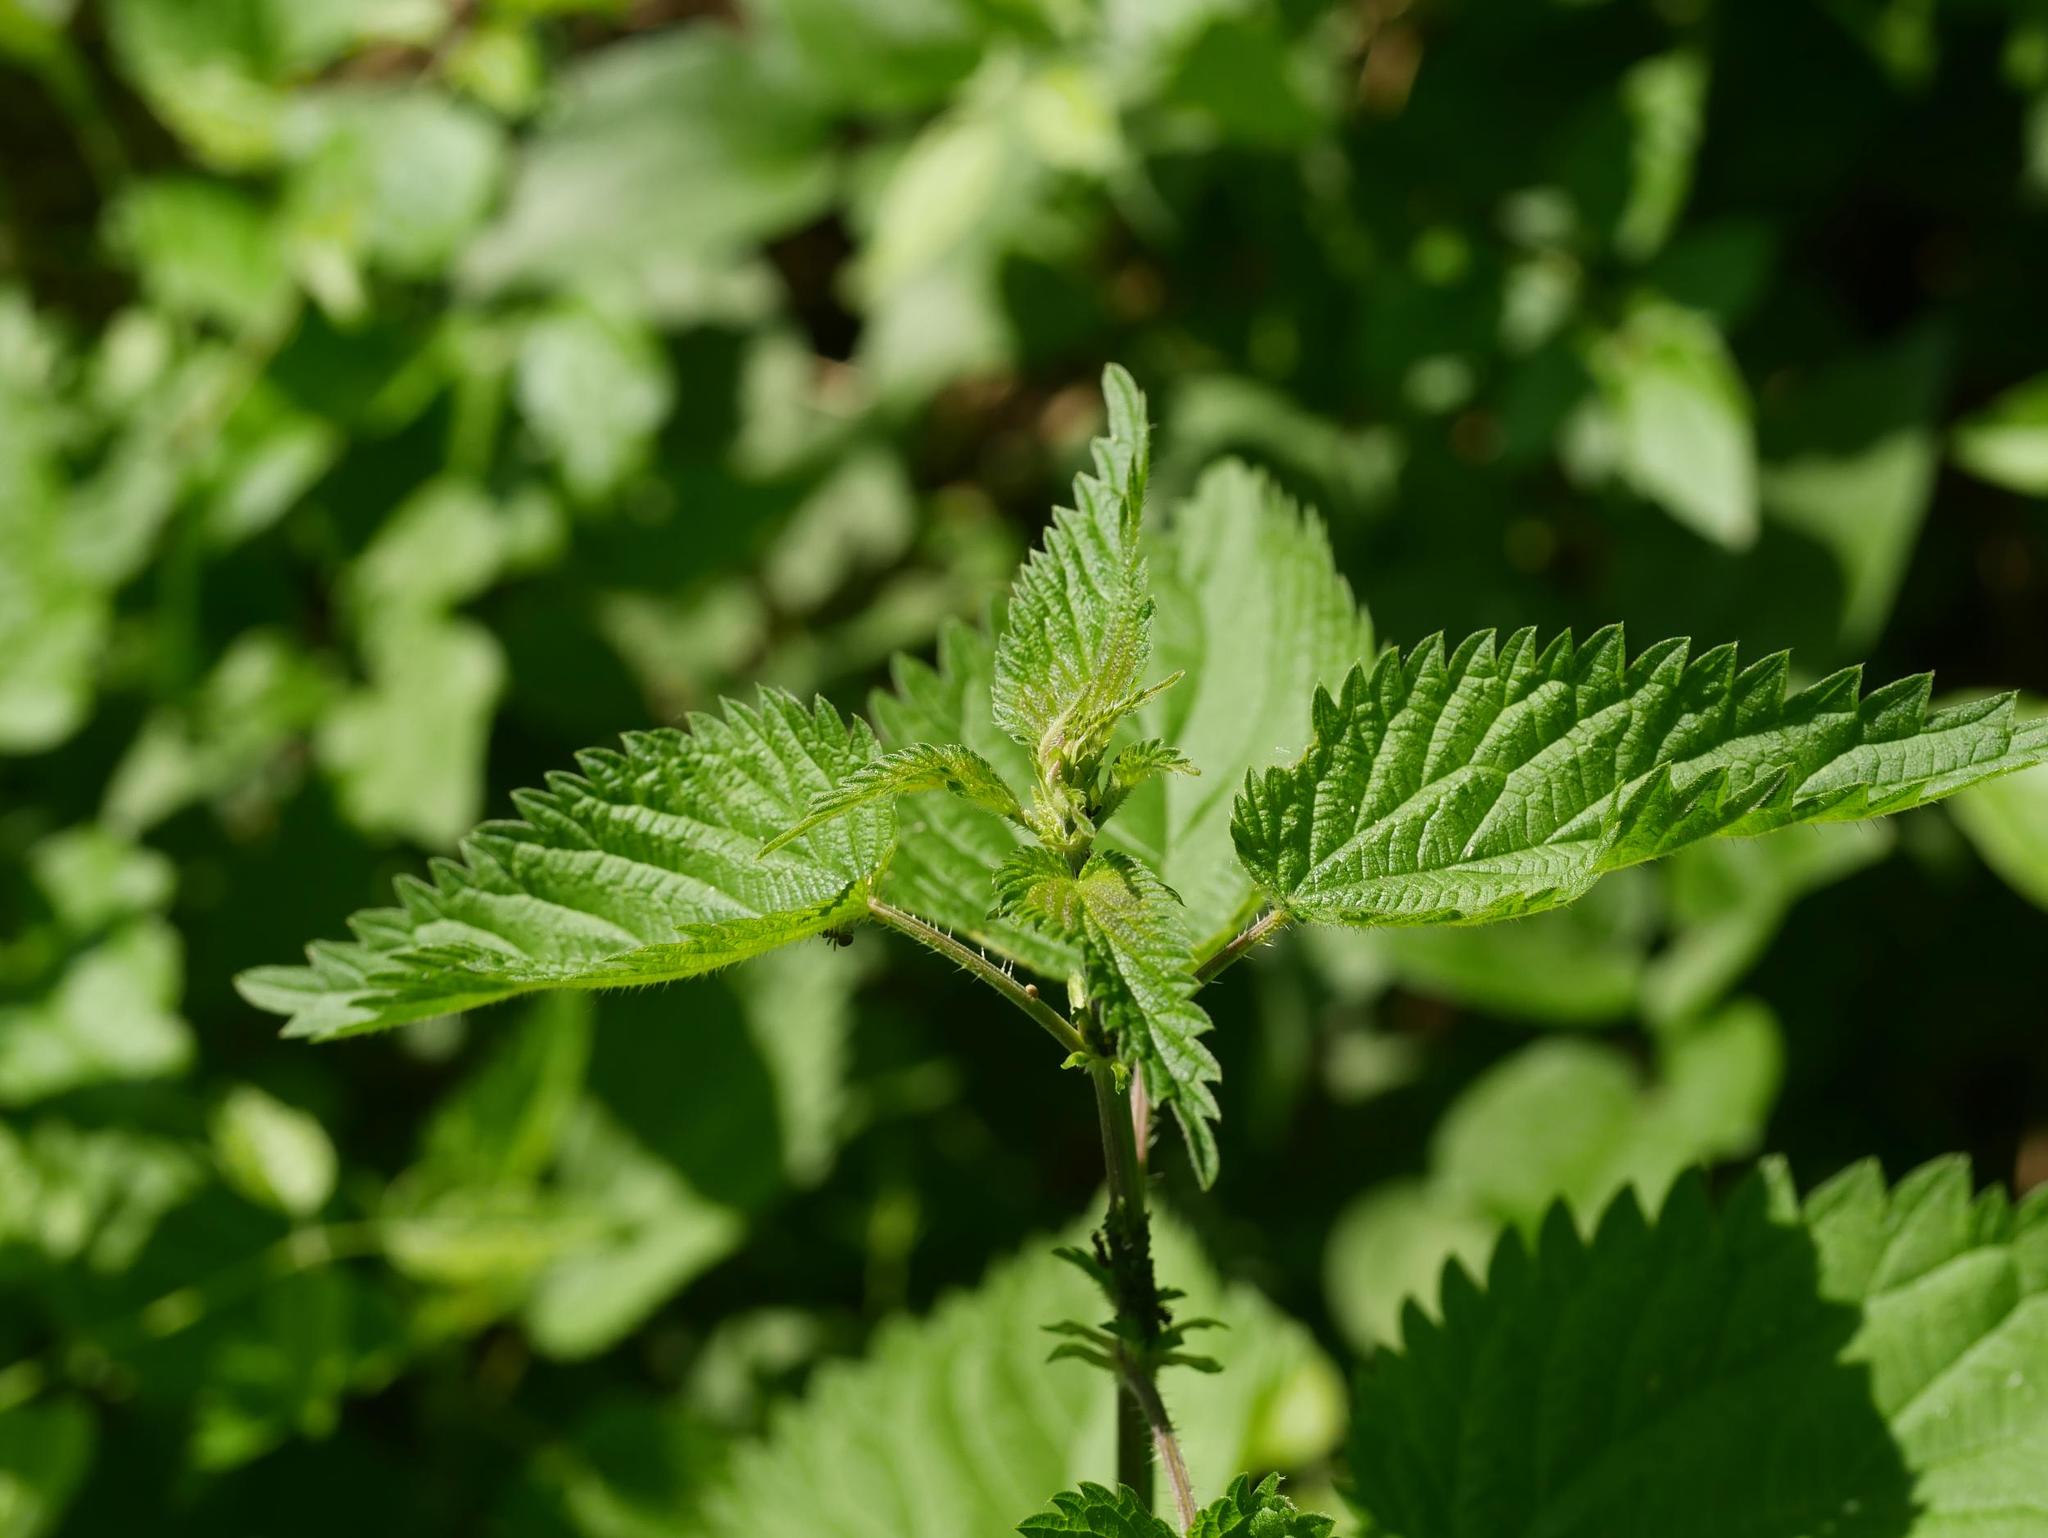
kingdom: Plantae
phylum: Tracheophyta
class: Magnoliopsida
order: Rosales
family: Urticaceae
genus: Urtica
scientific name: Urtica dioica
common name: Common nettle
